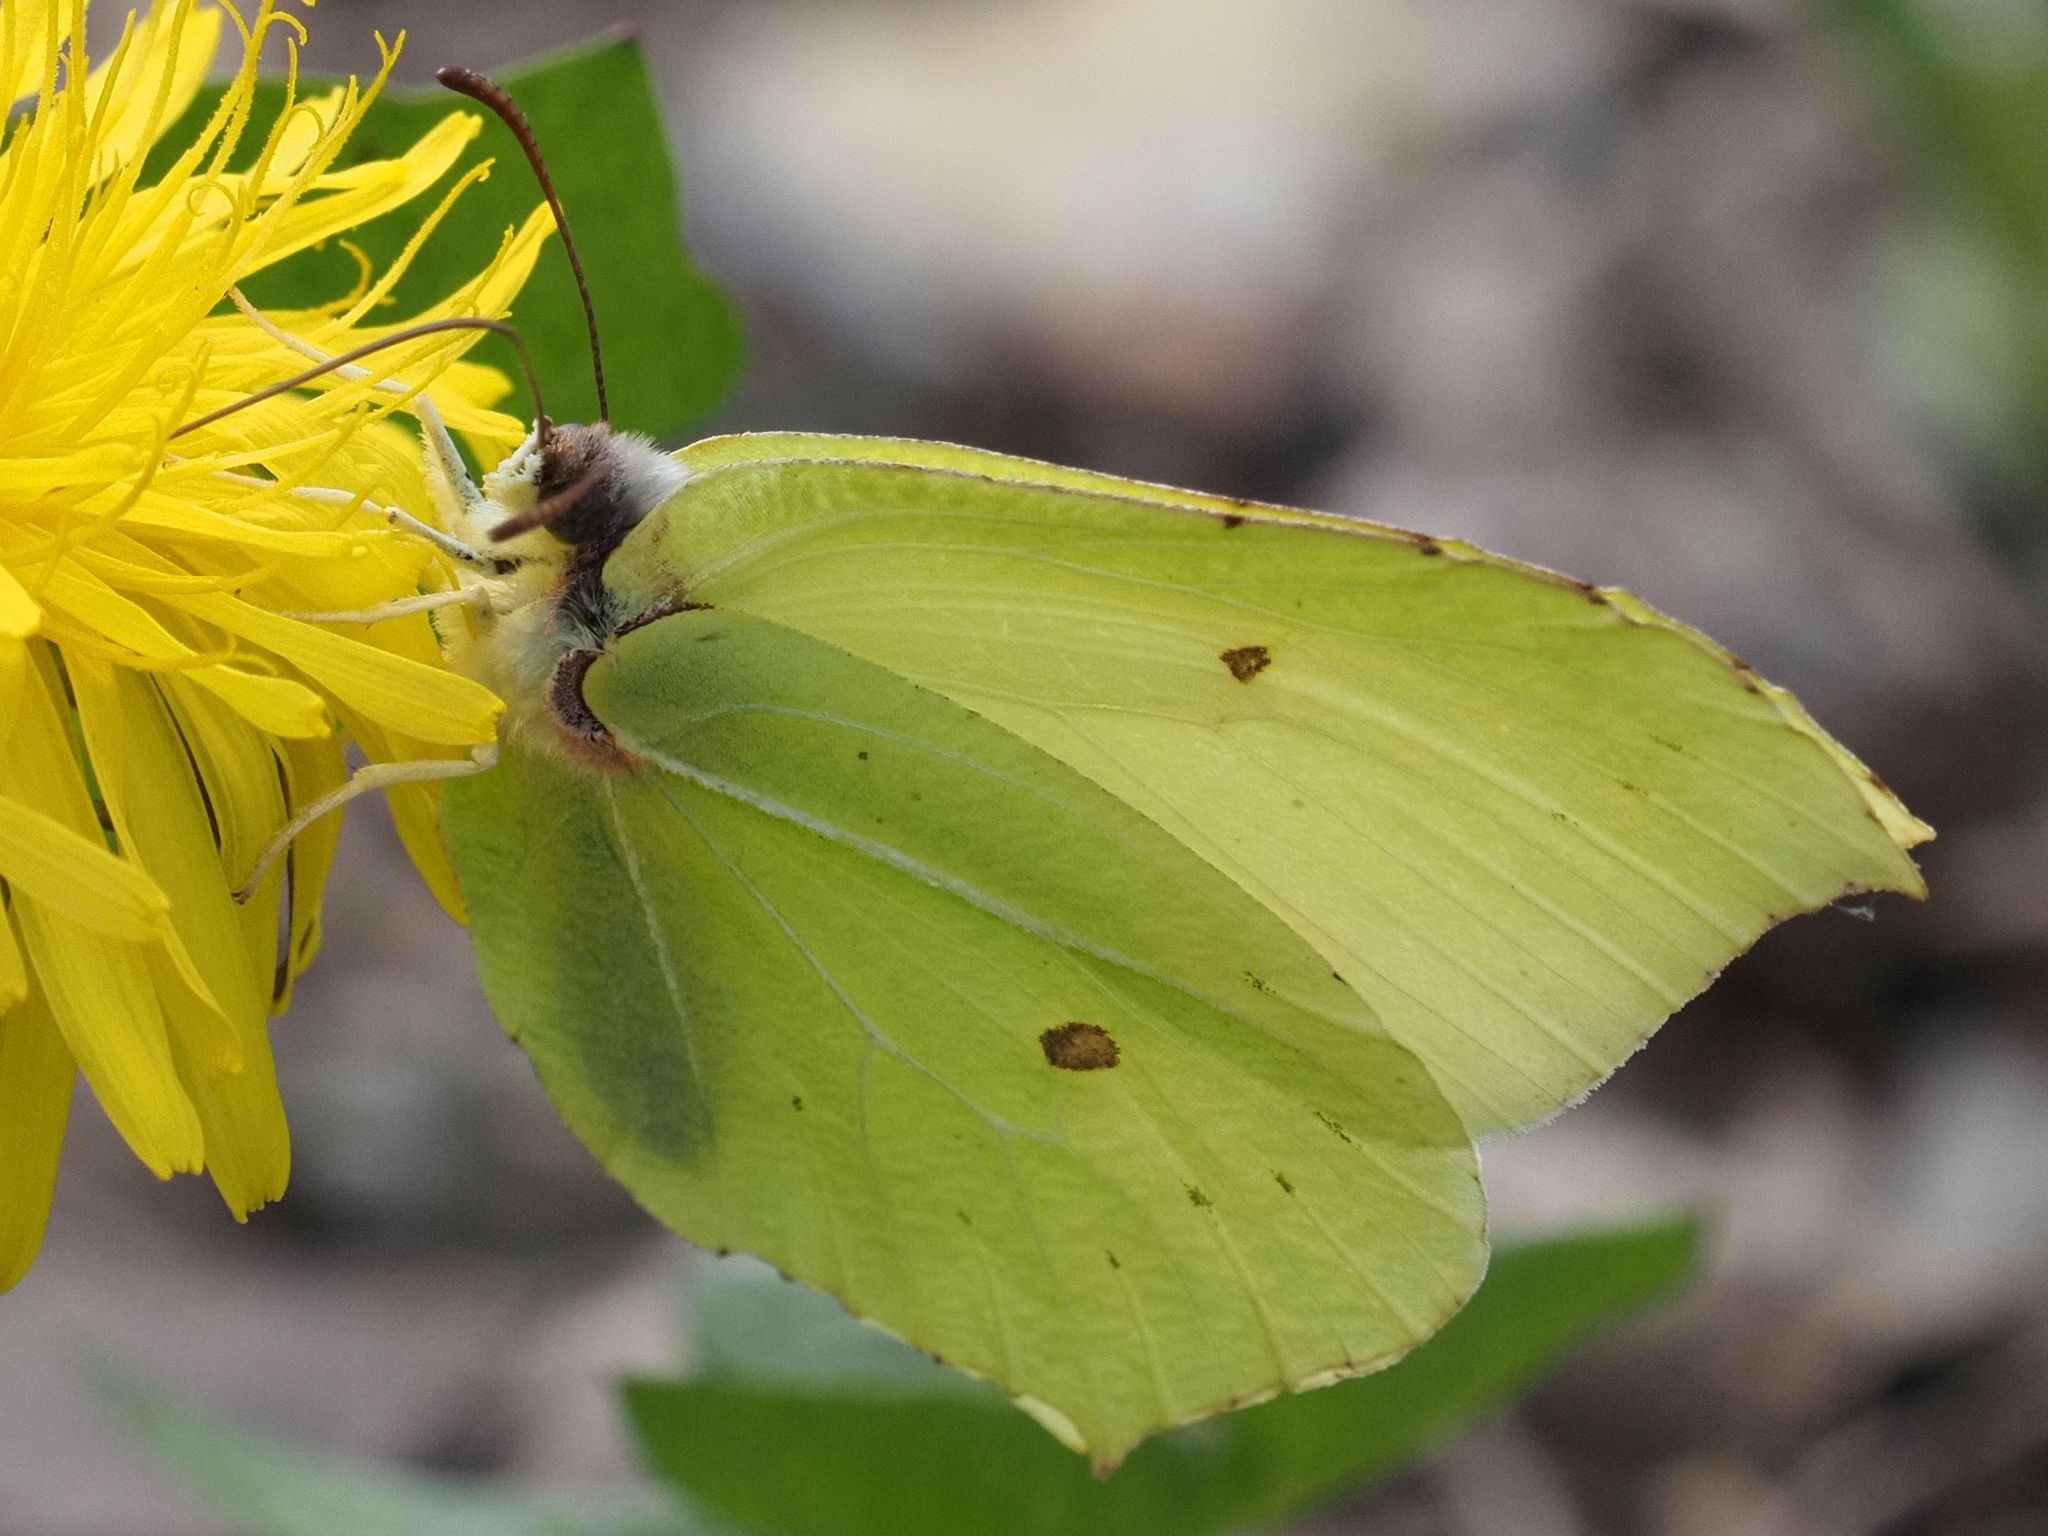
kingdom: Animalia
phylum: Arthropoda
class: Insecta
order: Lepidoptera
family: Pieridae
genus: Gonepteryx
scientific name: Gonepteryx rhamni
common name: Brimstone
